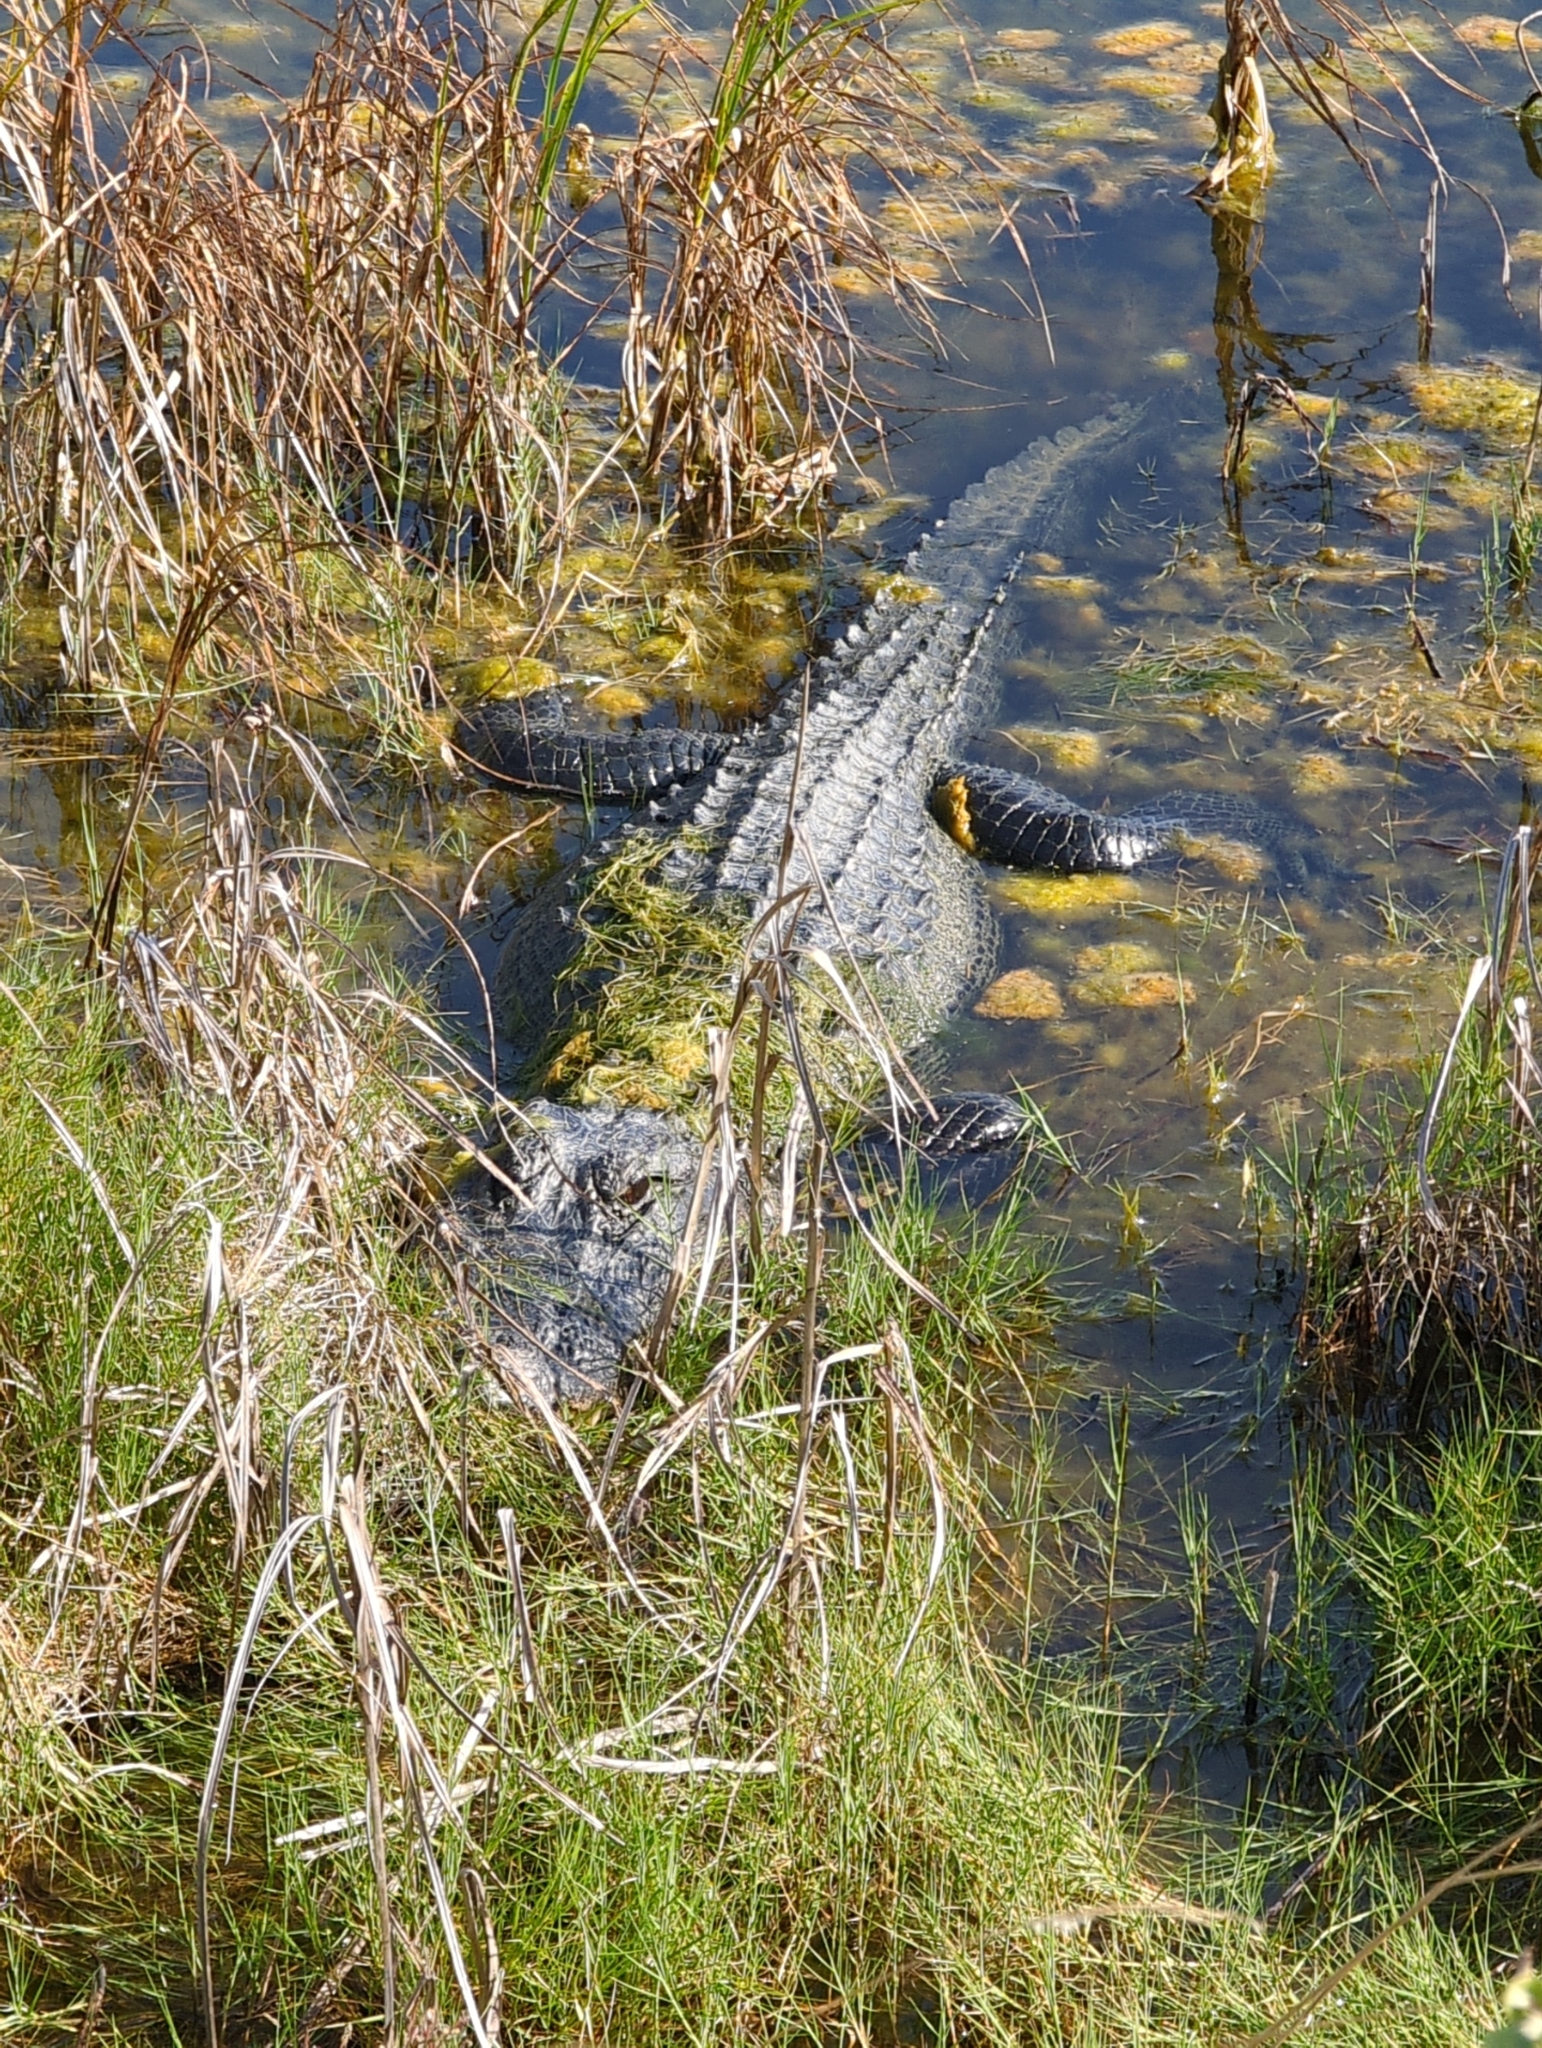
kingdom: Animalia
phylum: Chordata
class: Crocodylia
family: Alligatoridae
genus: Alligator
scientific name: Alligator mississippiensis
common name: American alligator
